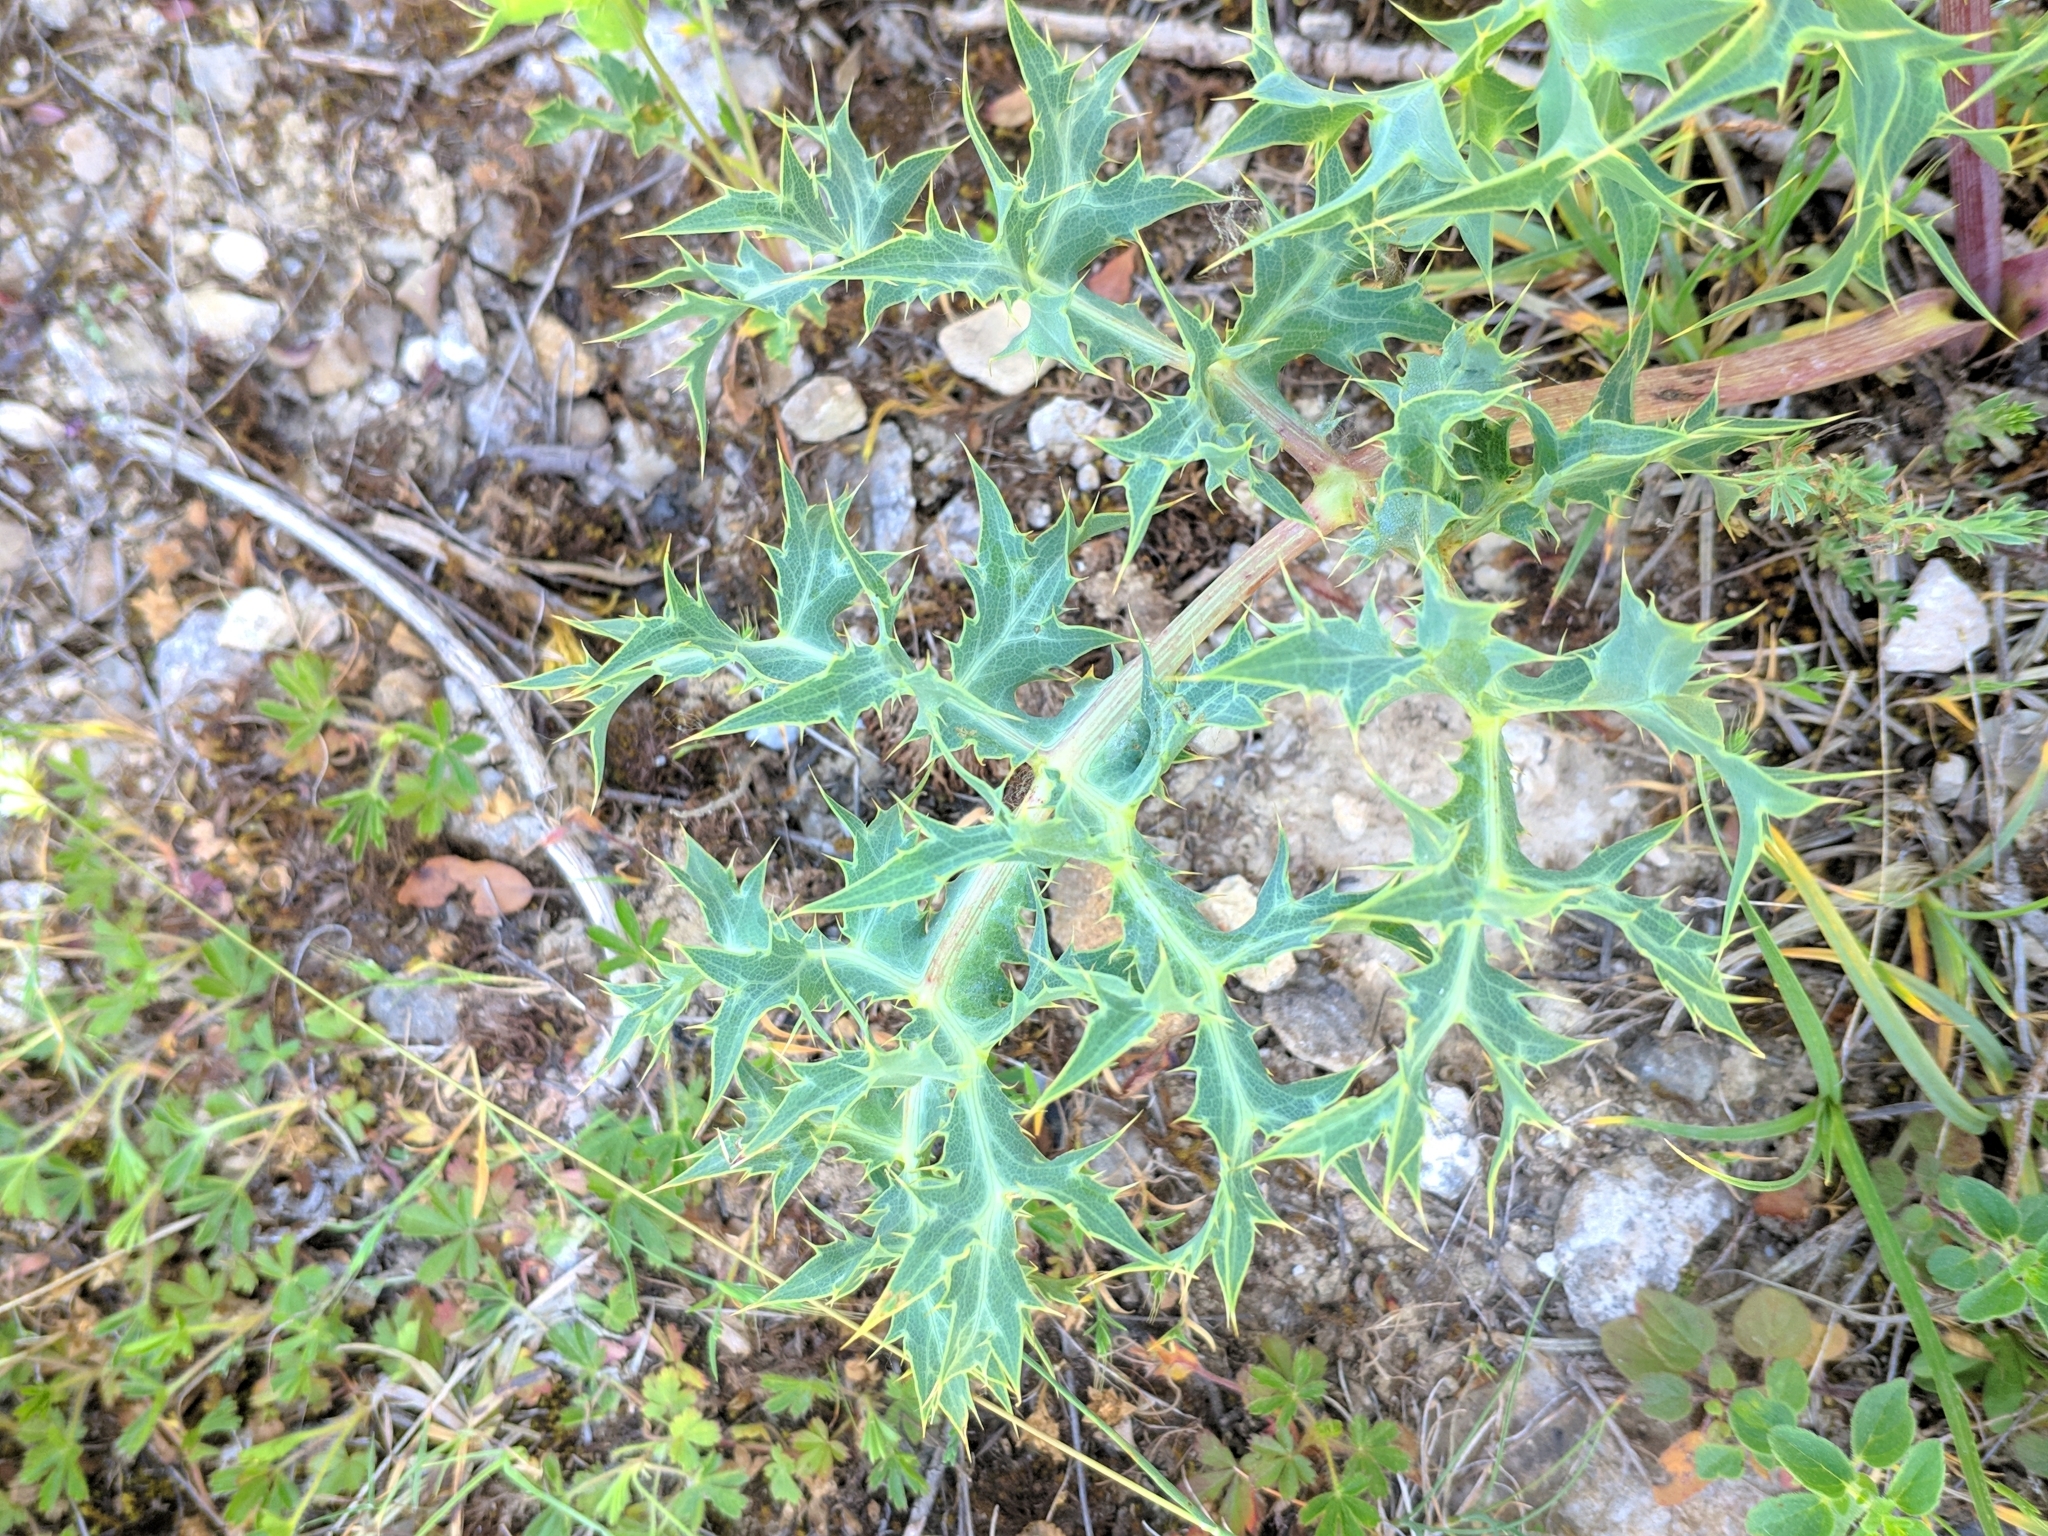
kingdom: Plantae
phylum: Tracheophyta
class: Magnoliopsida
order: Apiales
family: Apiaceae
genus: Eryngium
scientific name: Eryngium campestre
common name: Field eryngo
